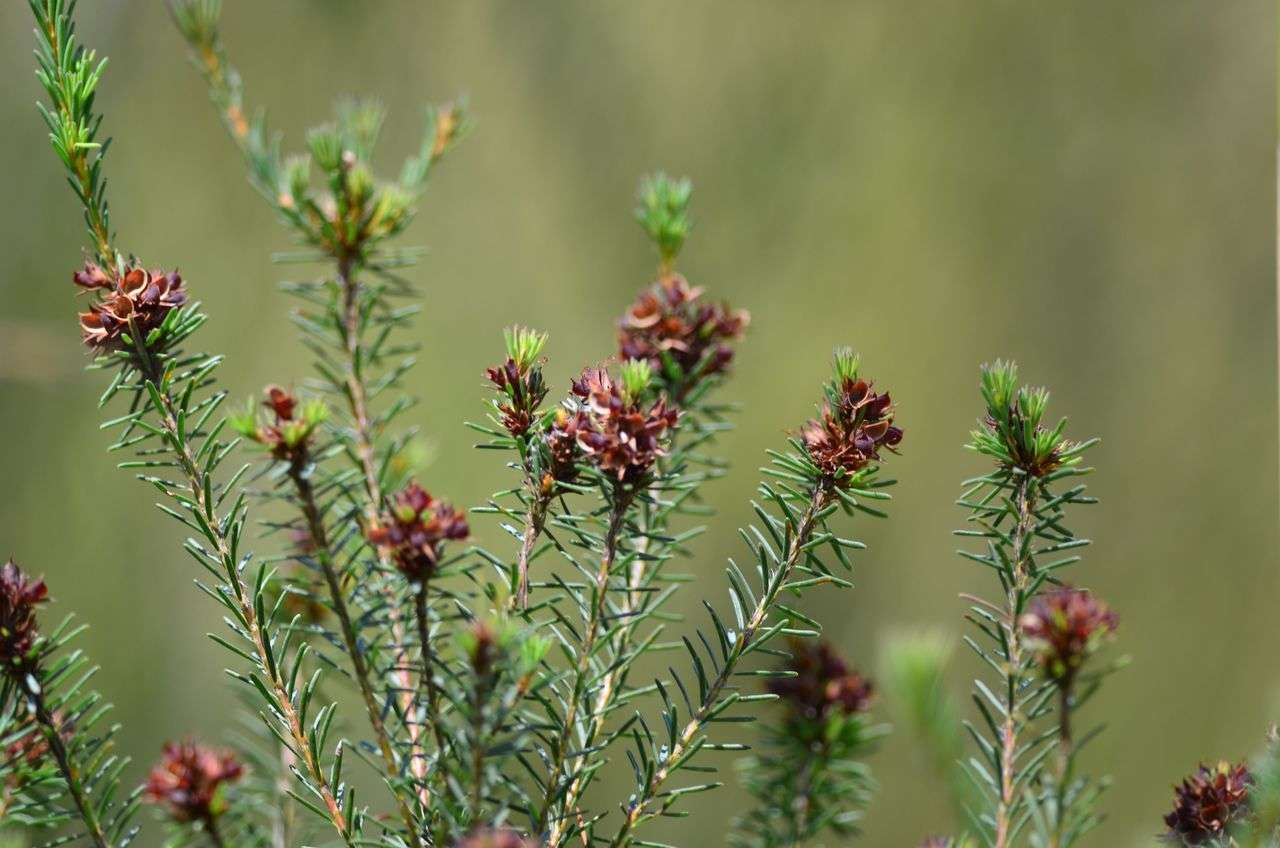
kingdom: Plantae
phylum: Tracheophyta
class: Magnoliopsida
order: Fabales
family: Fabaceae
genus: Pultenaea
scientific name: Pultenaea weindorferi
